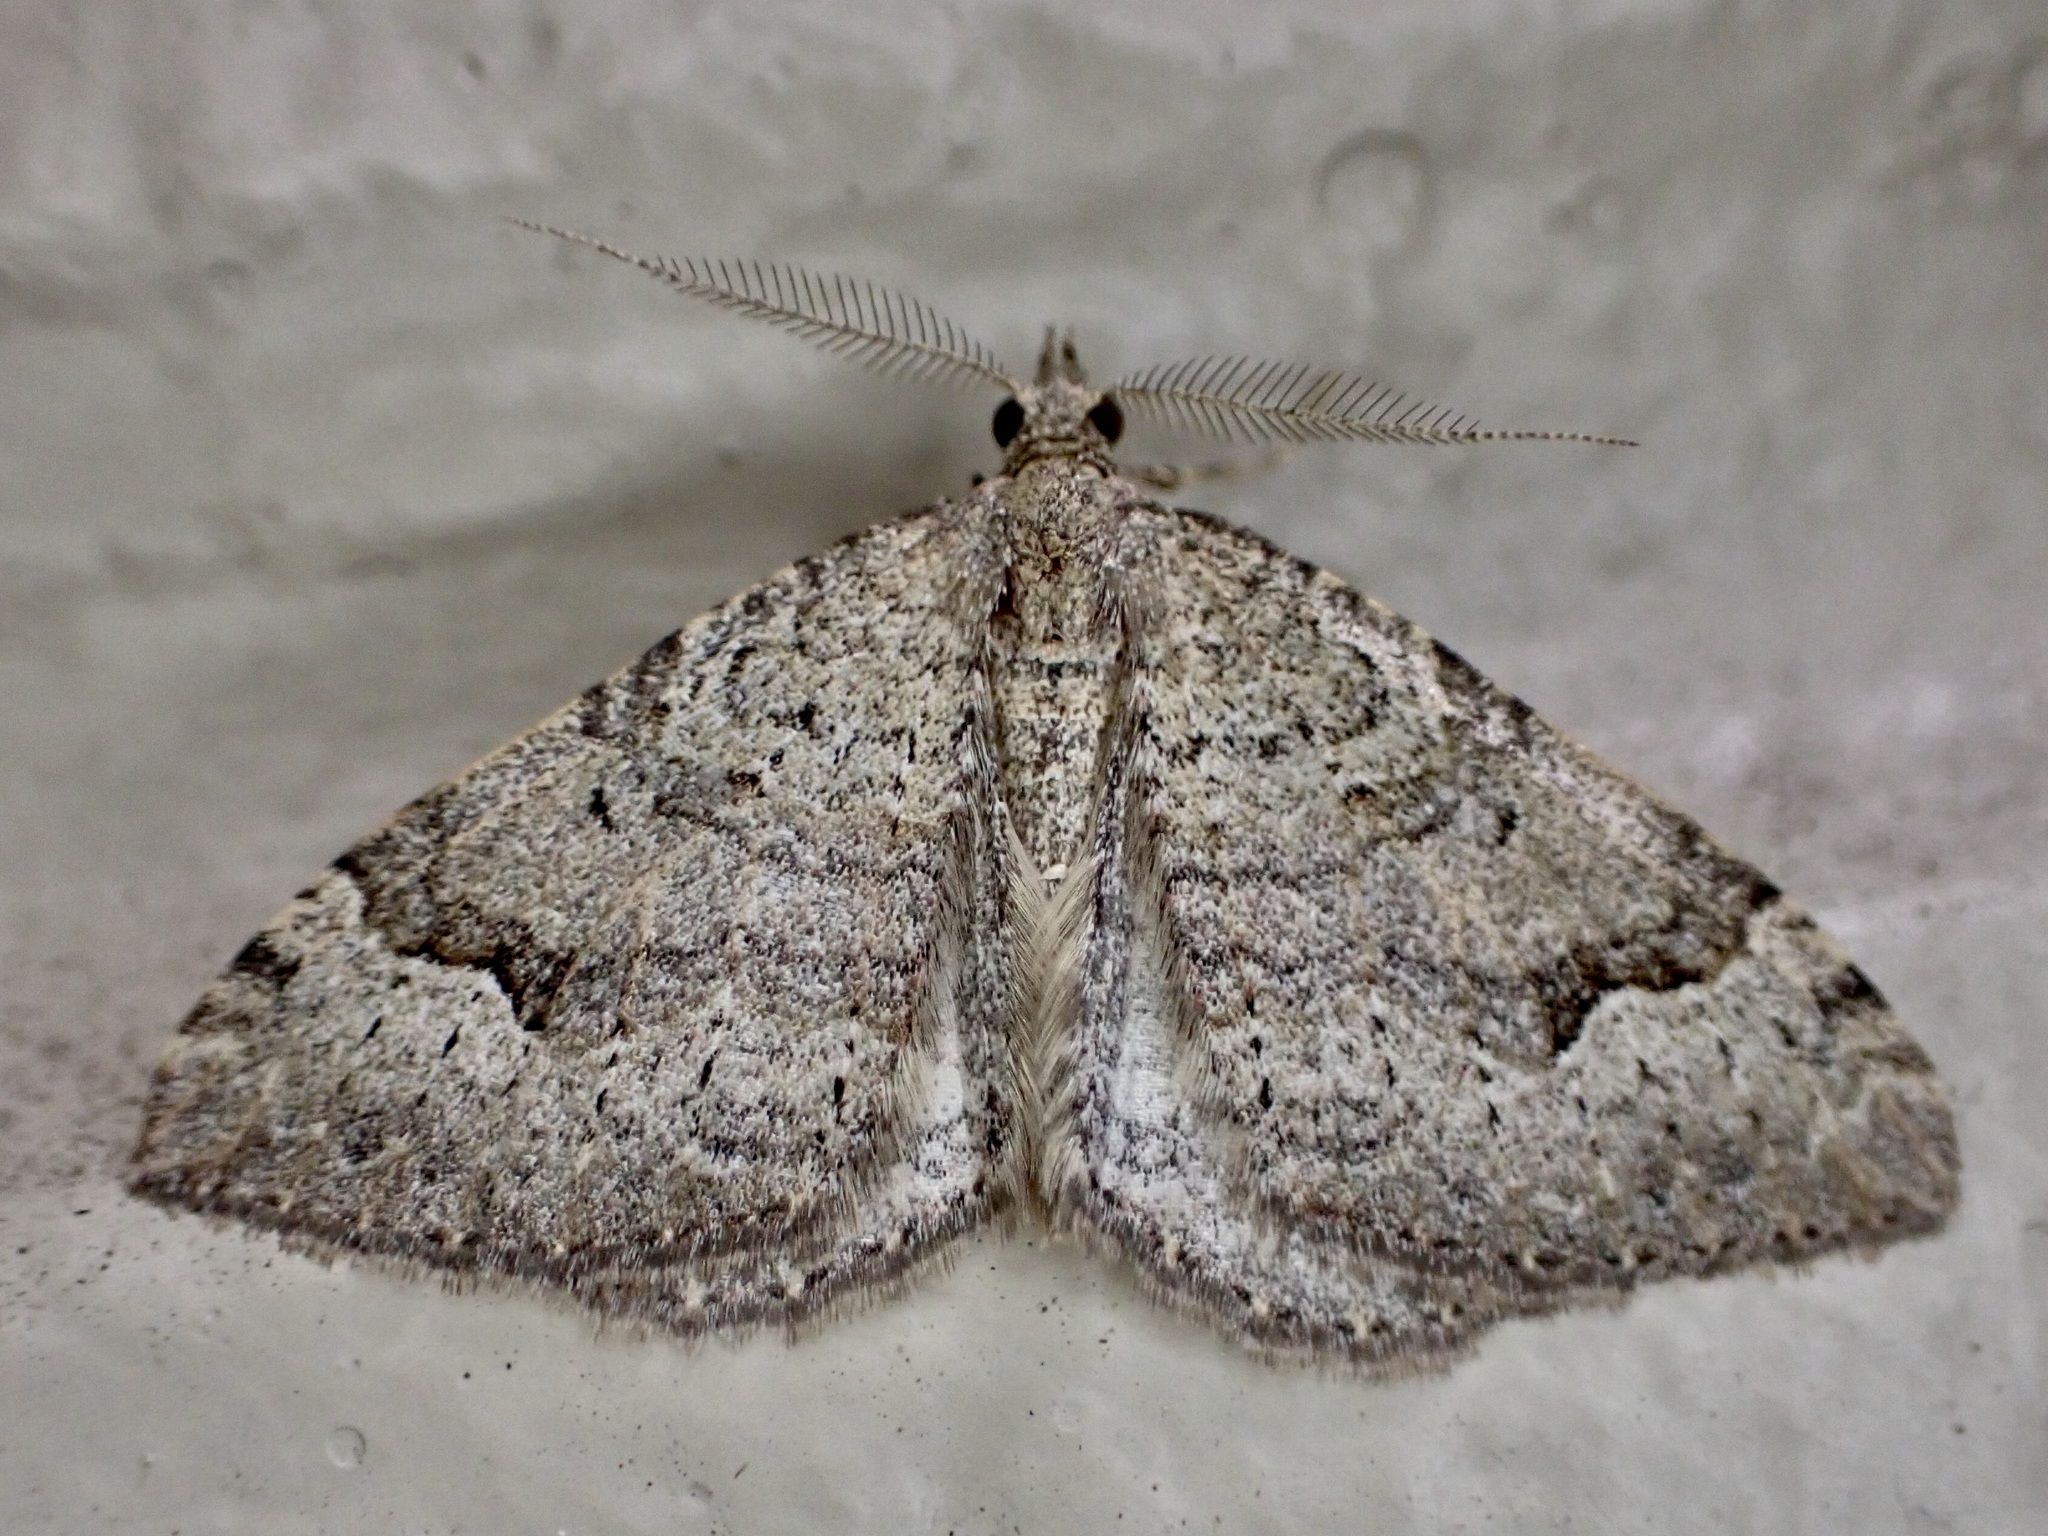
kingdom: Animalia
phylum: Arthropoda
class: Insecta
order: Lepidoptera
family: Geometridae
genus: Epyaxa
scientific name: Epyaxa rosearia
